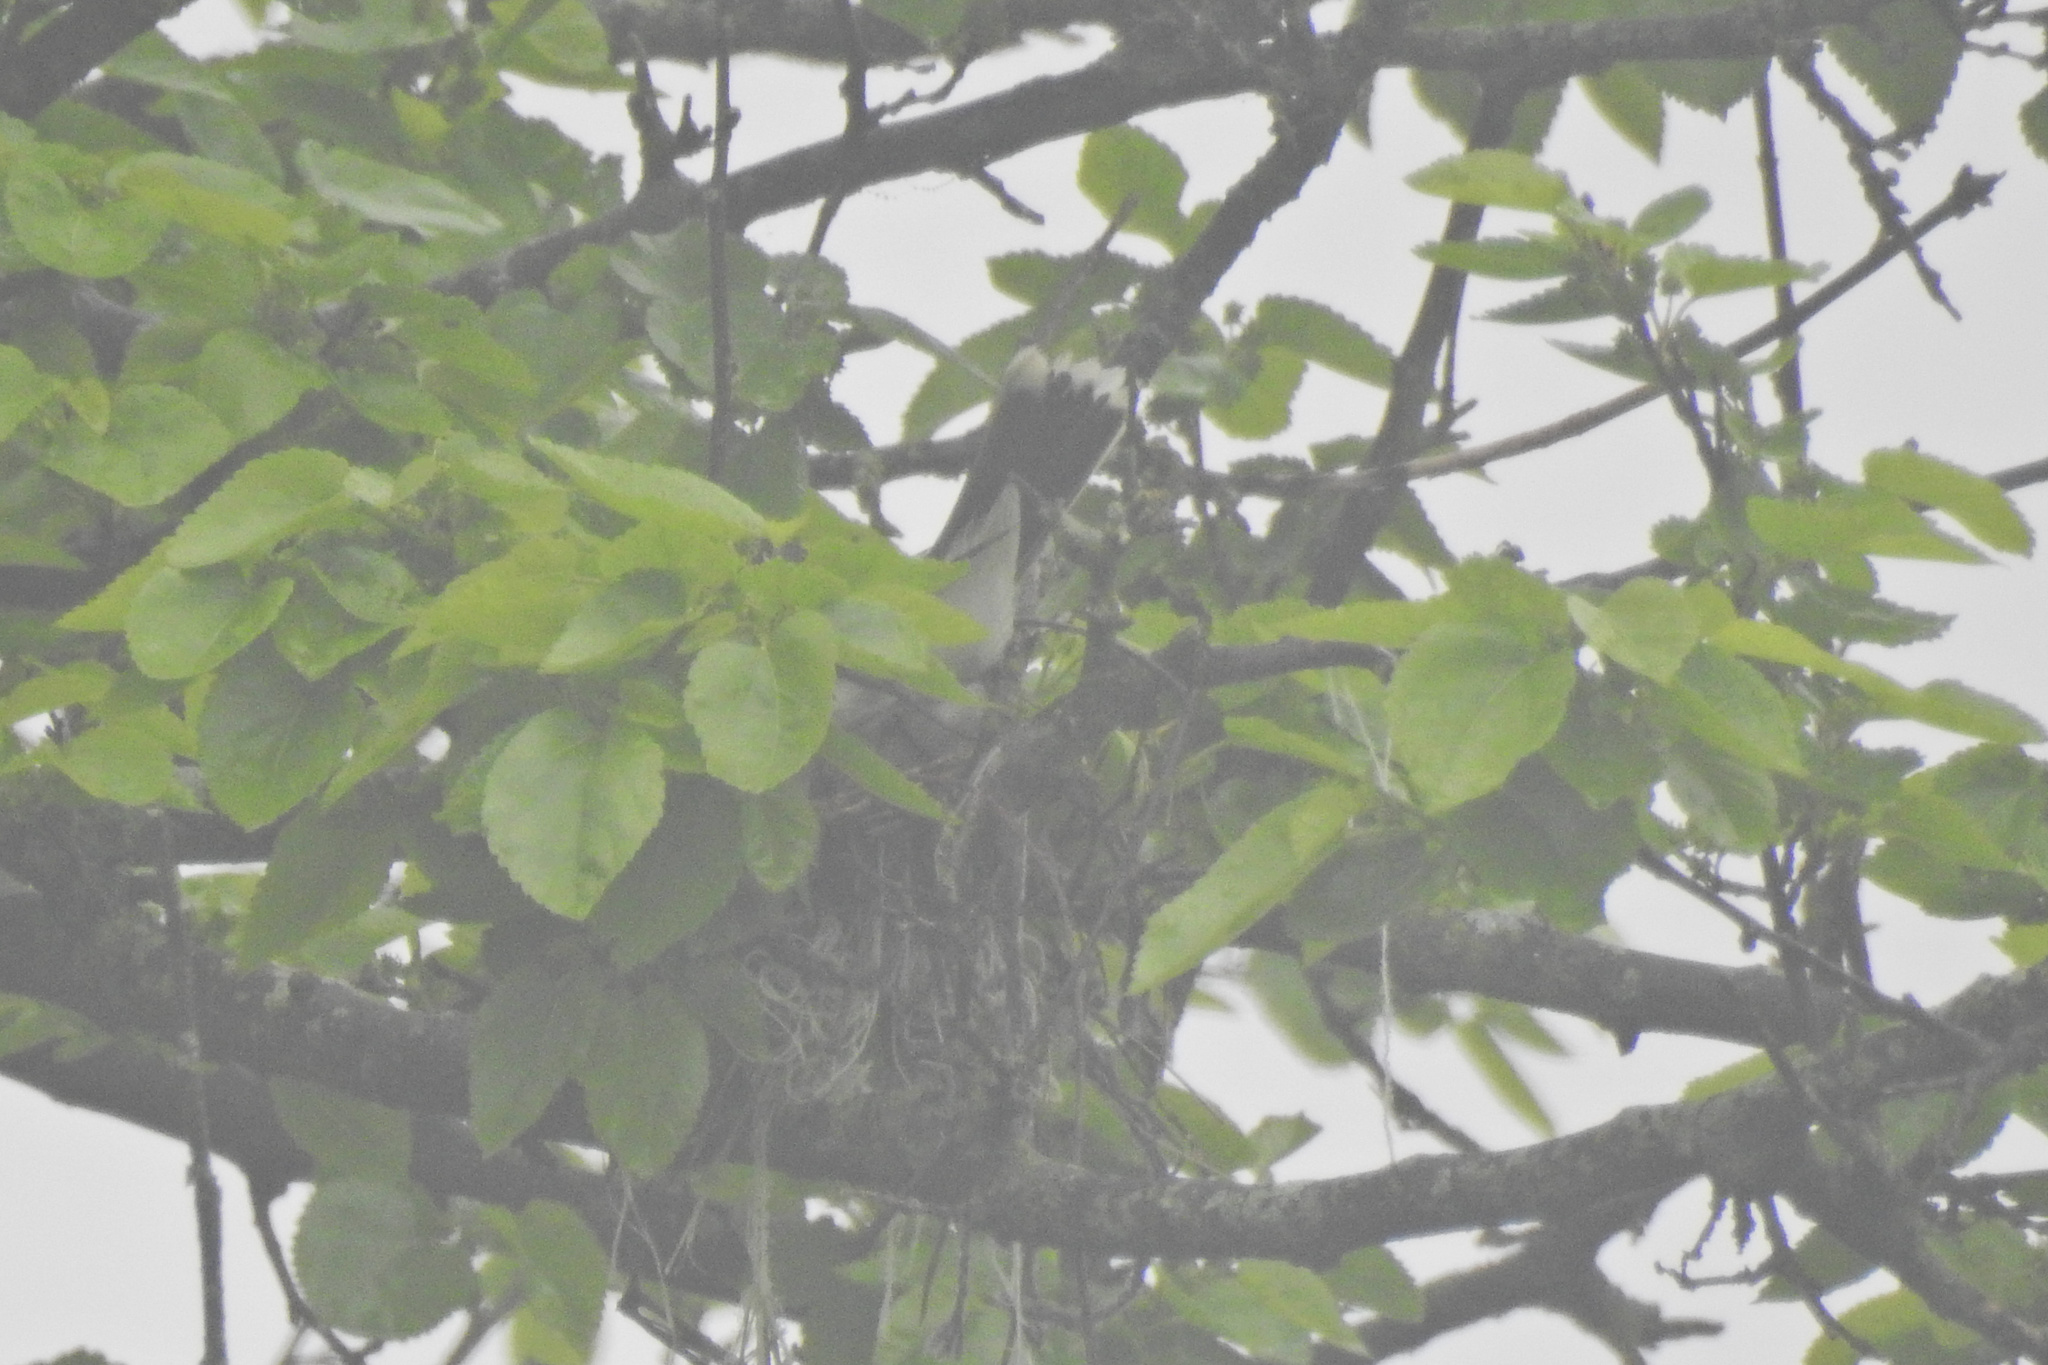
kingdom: Animalia
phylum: Chordata
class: Aves
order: Passeriformes
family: Tyrannidae
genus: Tyrannus
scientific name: Tyrannus tyrannus
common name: Eastern kingbird
